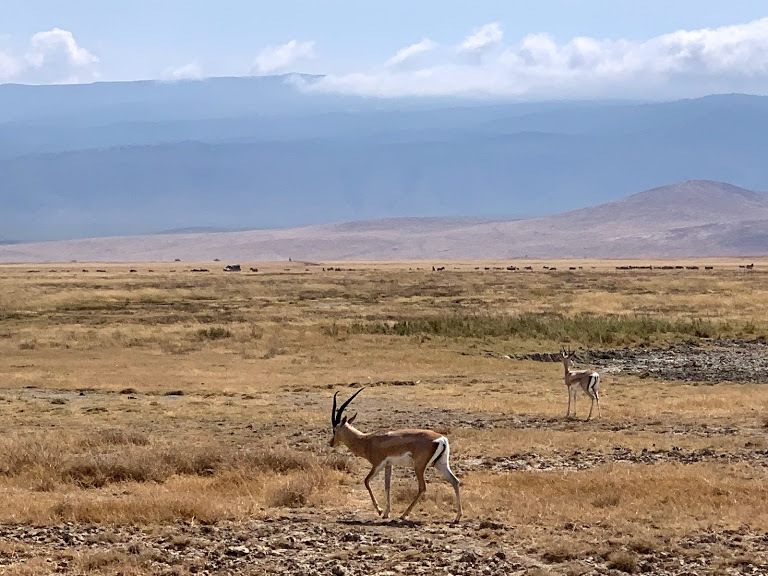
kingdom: Animalia
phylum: Chordata
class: Mammalia
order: Artiodactyla
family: Bovidae
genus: Nanger
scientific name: Nanger granti
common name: Grant's gazelle
